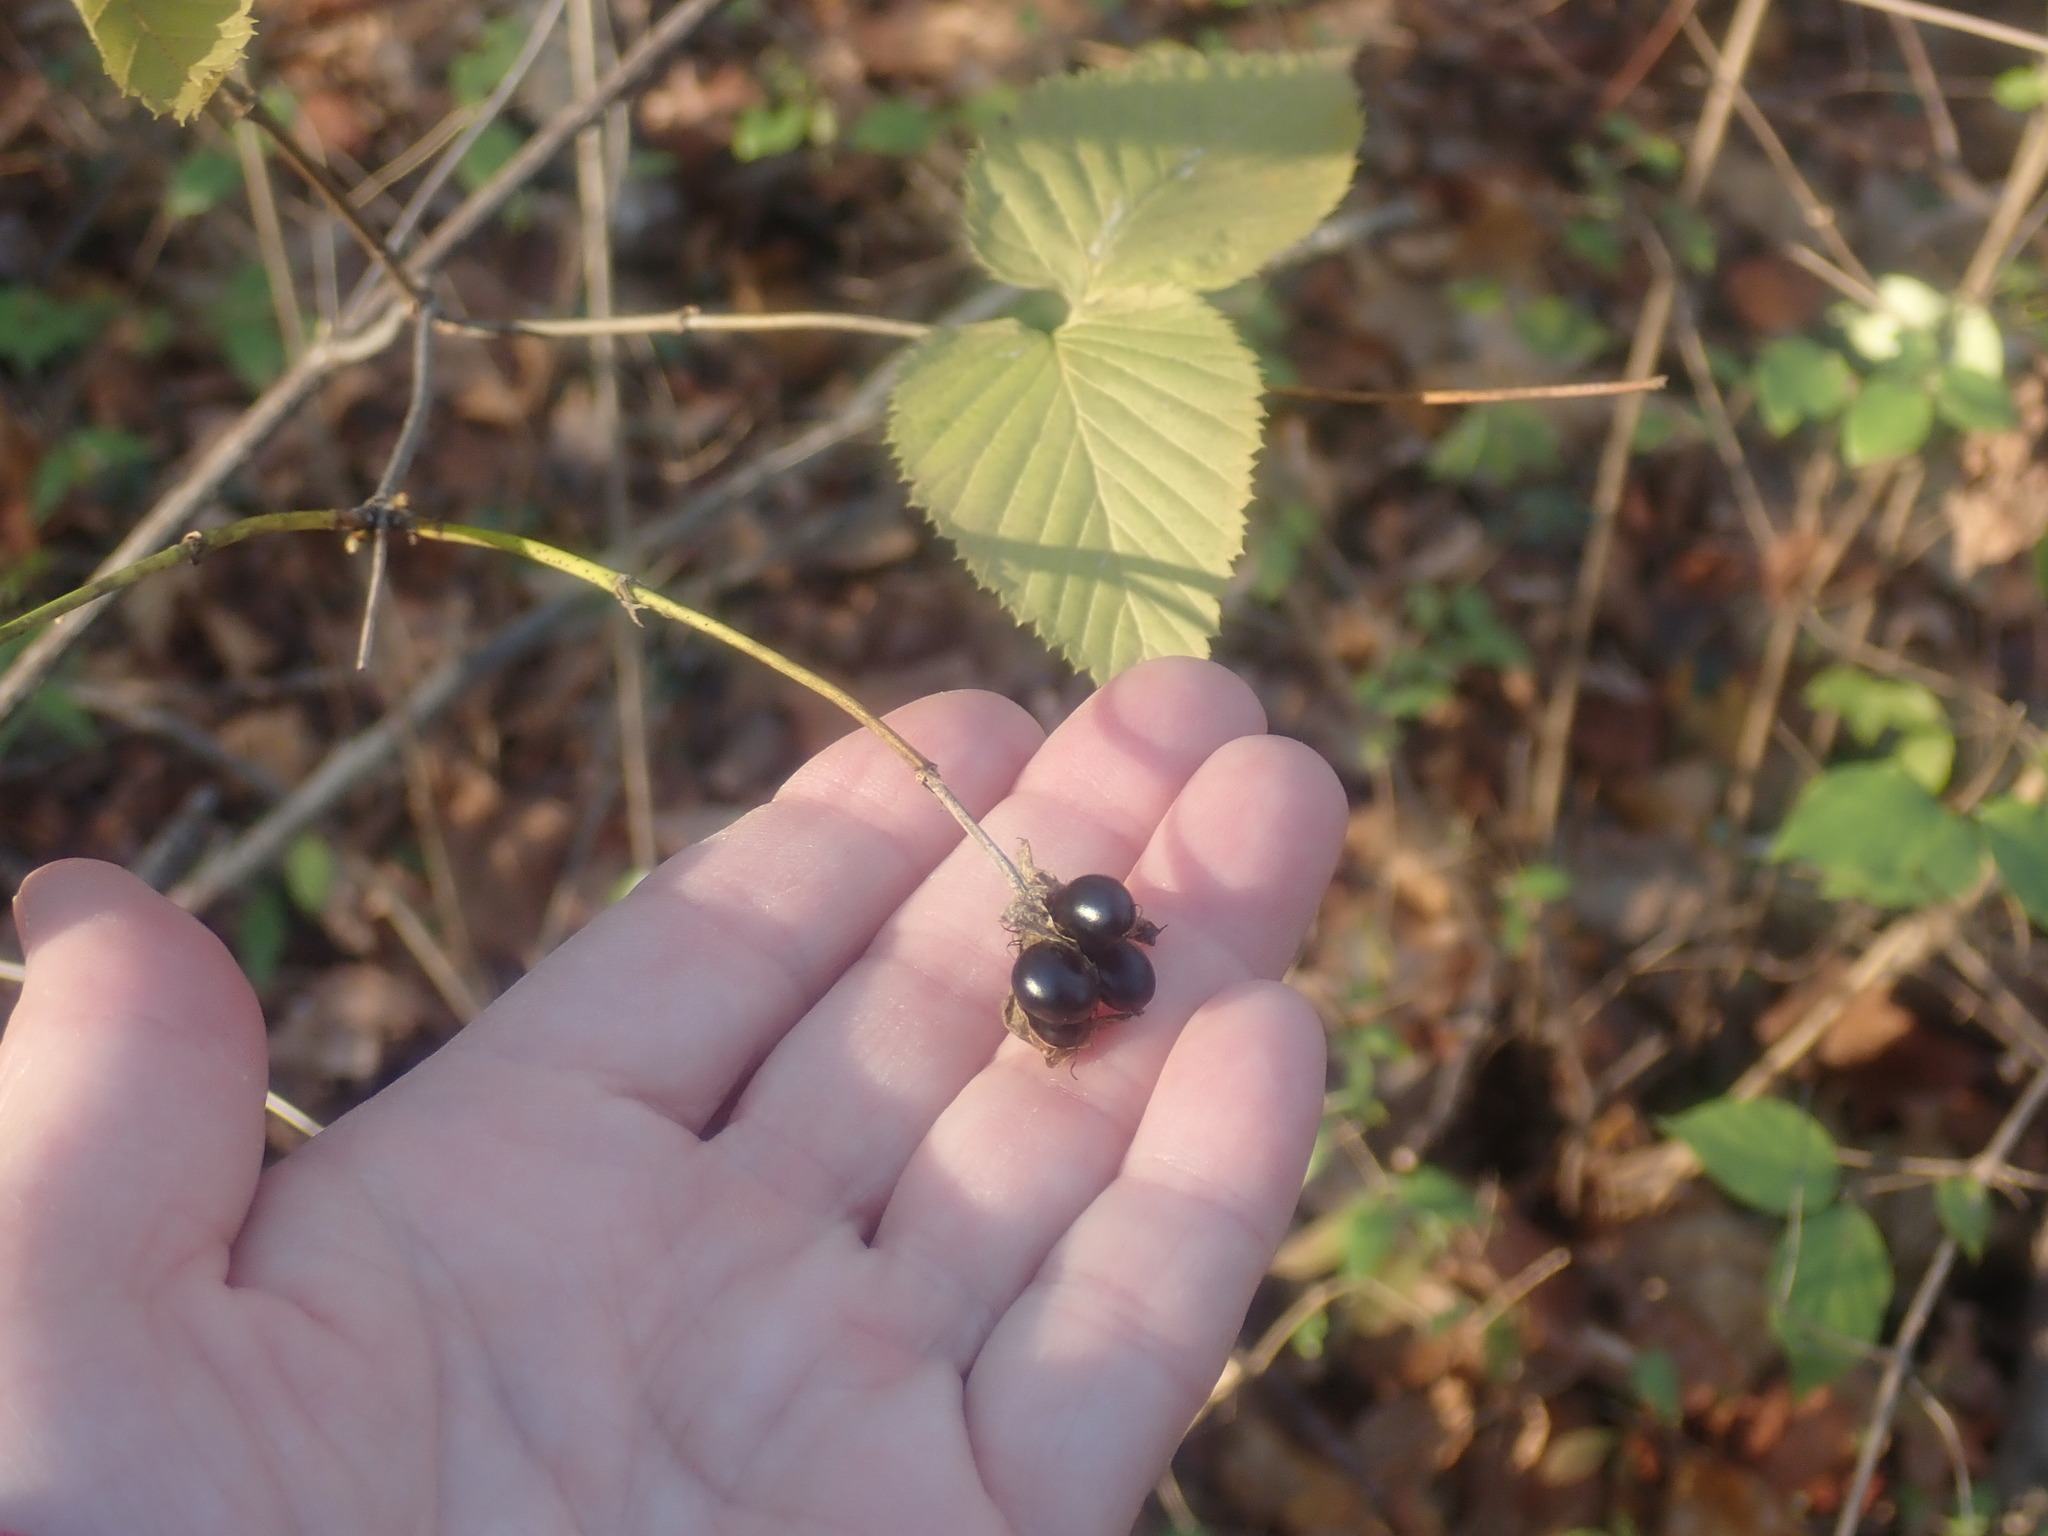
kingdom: Plantae
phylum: Tracheophyta
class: Magnoliopsida
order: Rosales
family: Rosaceae
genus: Rhodotypos
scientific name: Rhodotypos scandens
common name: Jetbead
